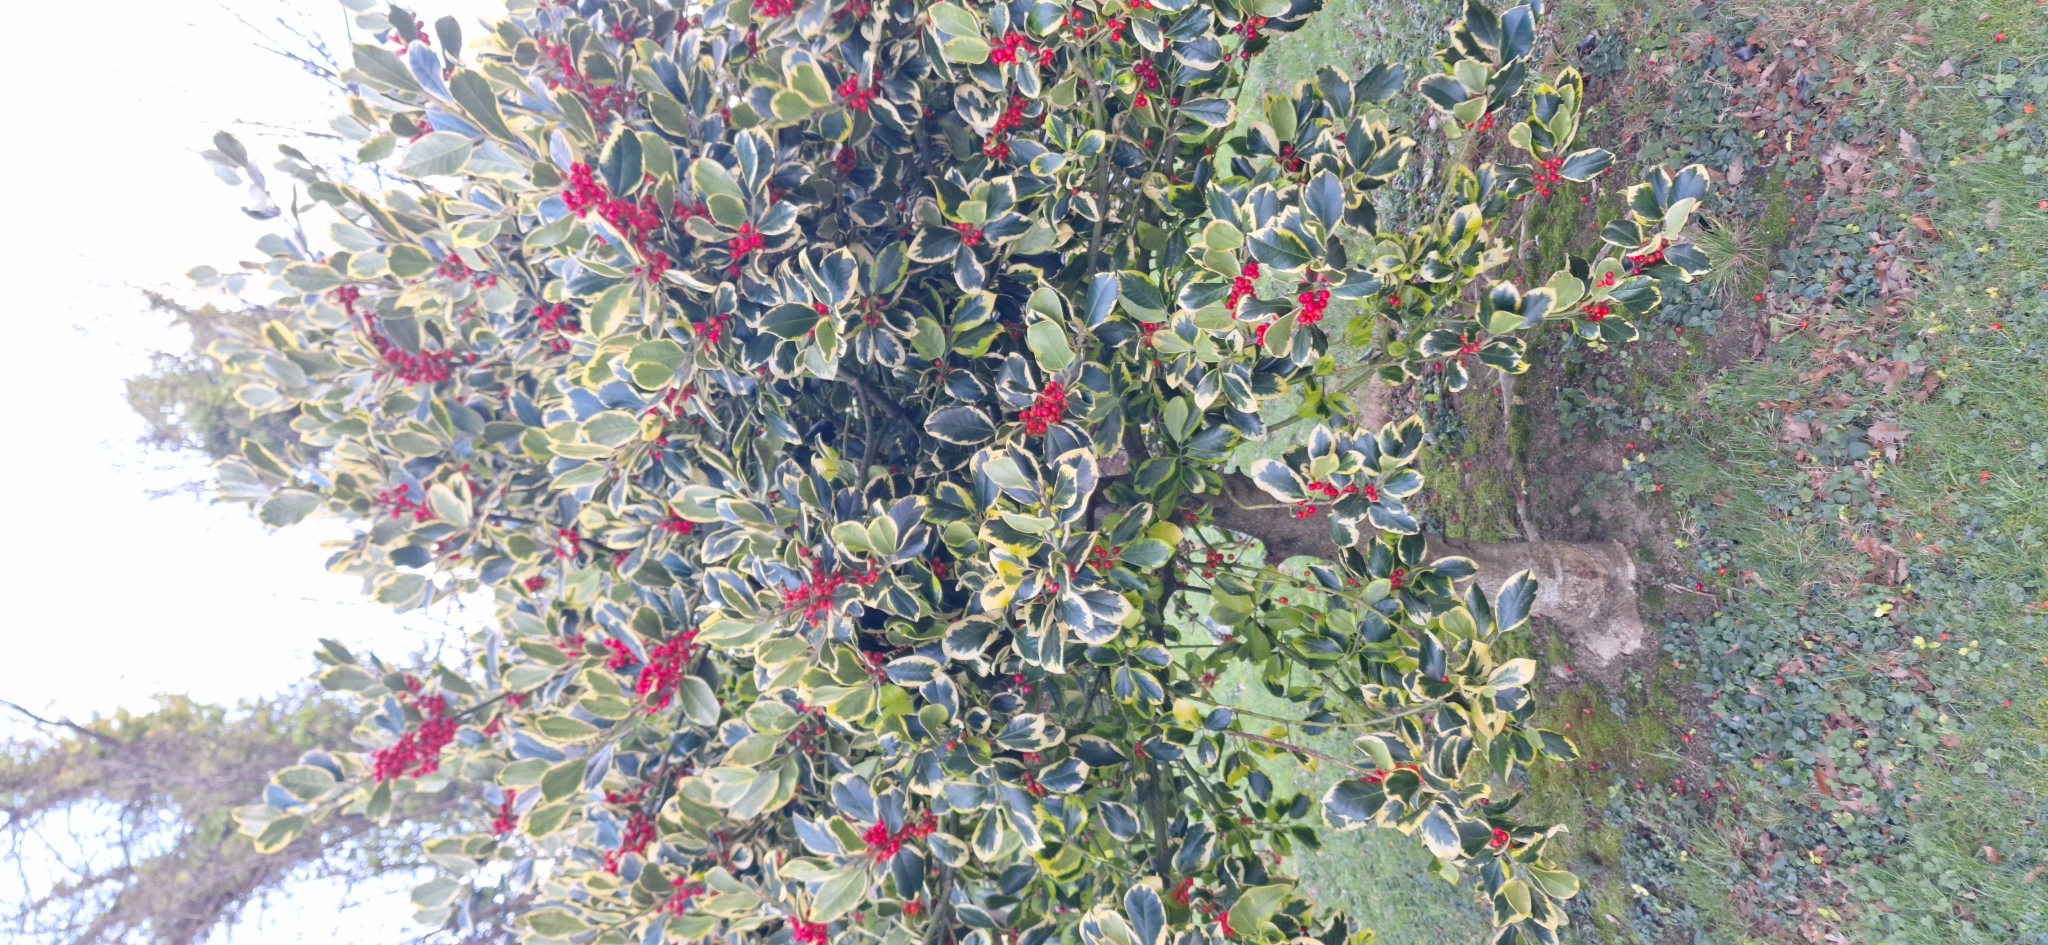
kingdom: Plantae
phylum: Tracheophyta
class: Magnoliopsida
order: Aquifoliales
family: Aquifoliaceae
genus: Ilex
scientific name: Ilex aquifolium
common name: English holly
